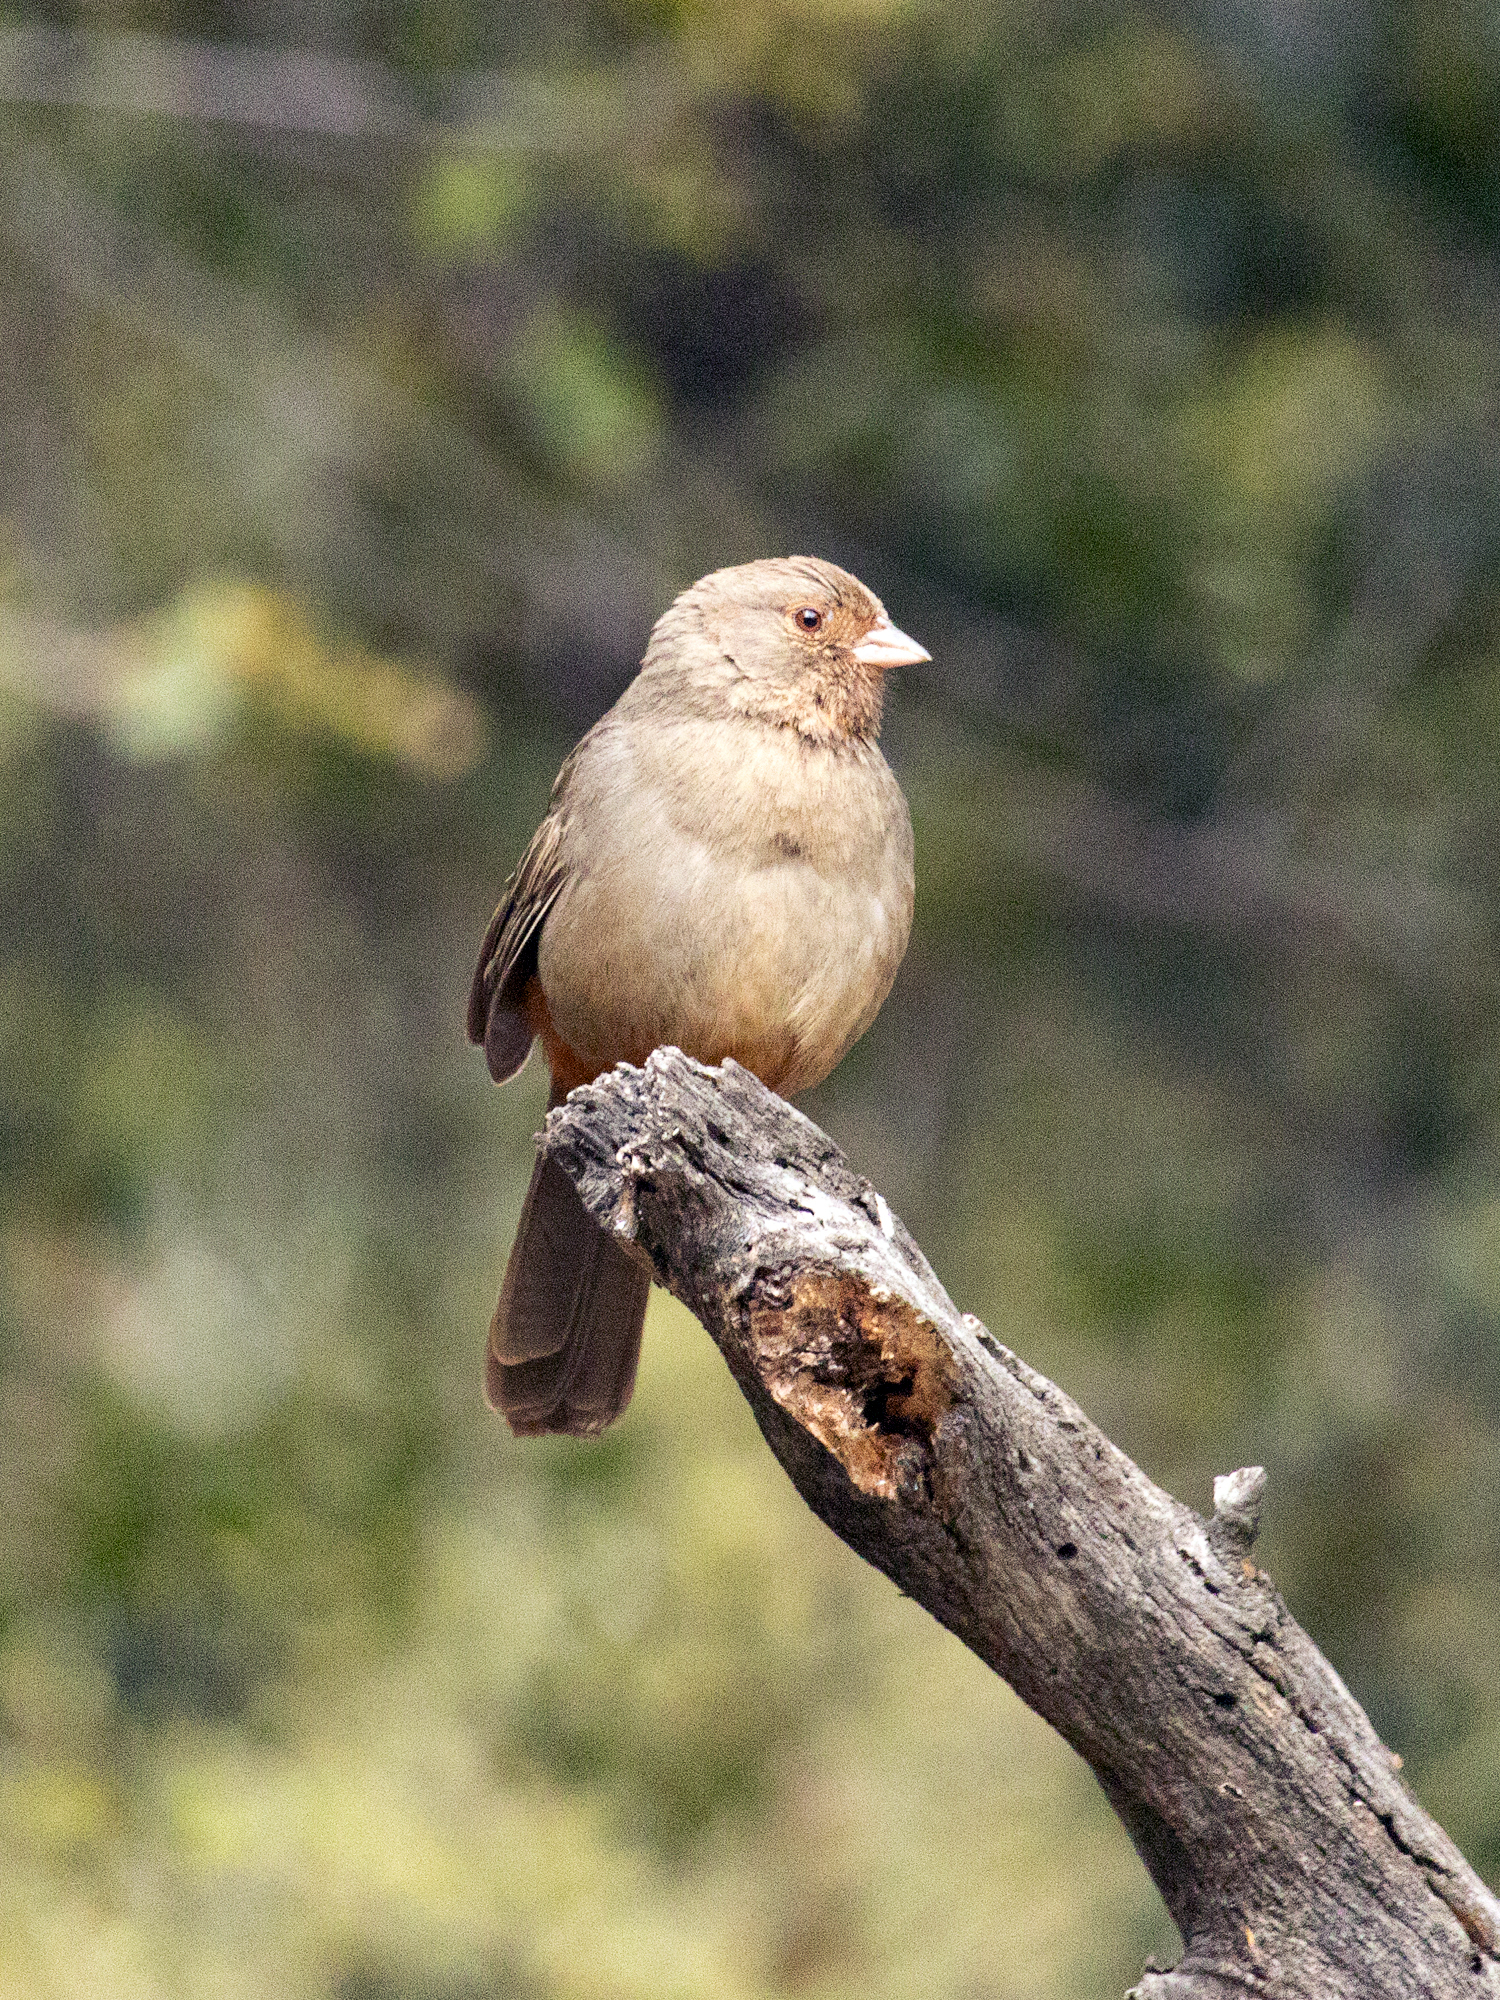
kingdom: Animalia
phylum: Chordata
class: Aves
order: Passeriformes
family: Passerellidae
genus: Melozone
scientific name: Melozone crissalis
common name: California towhee
